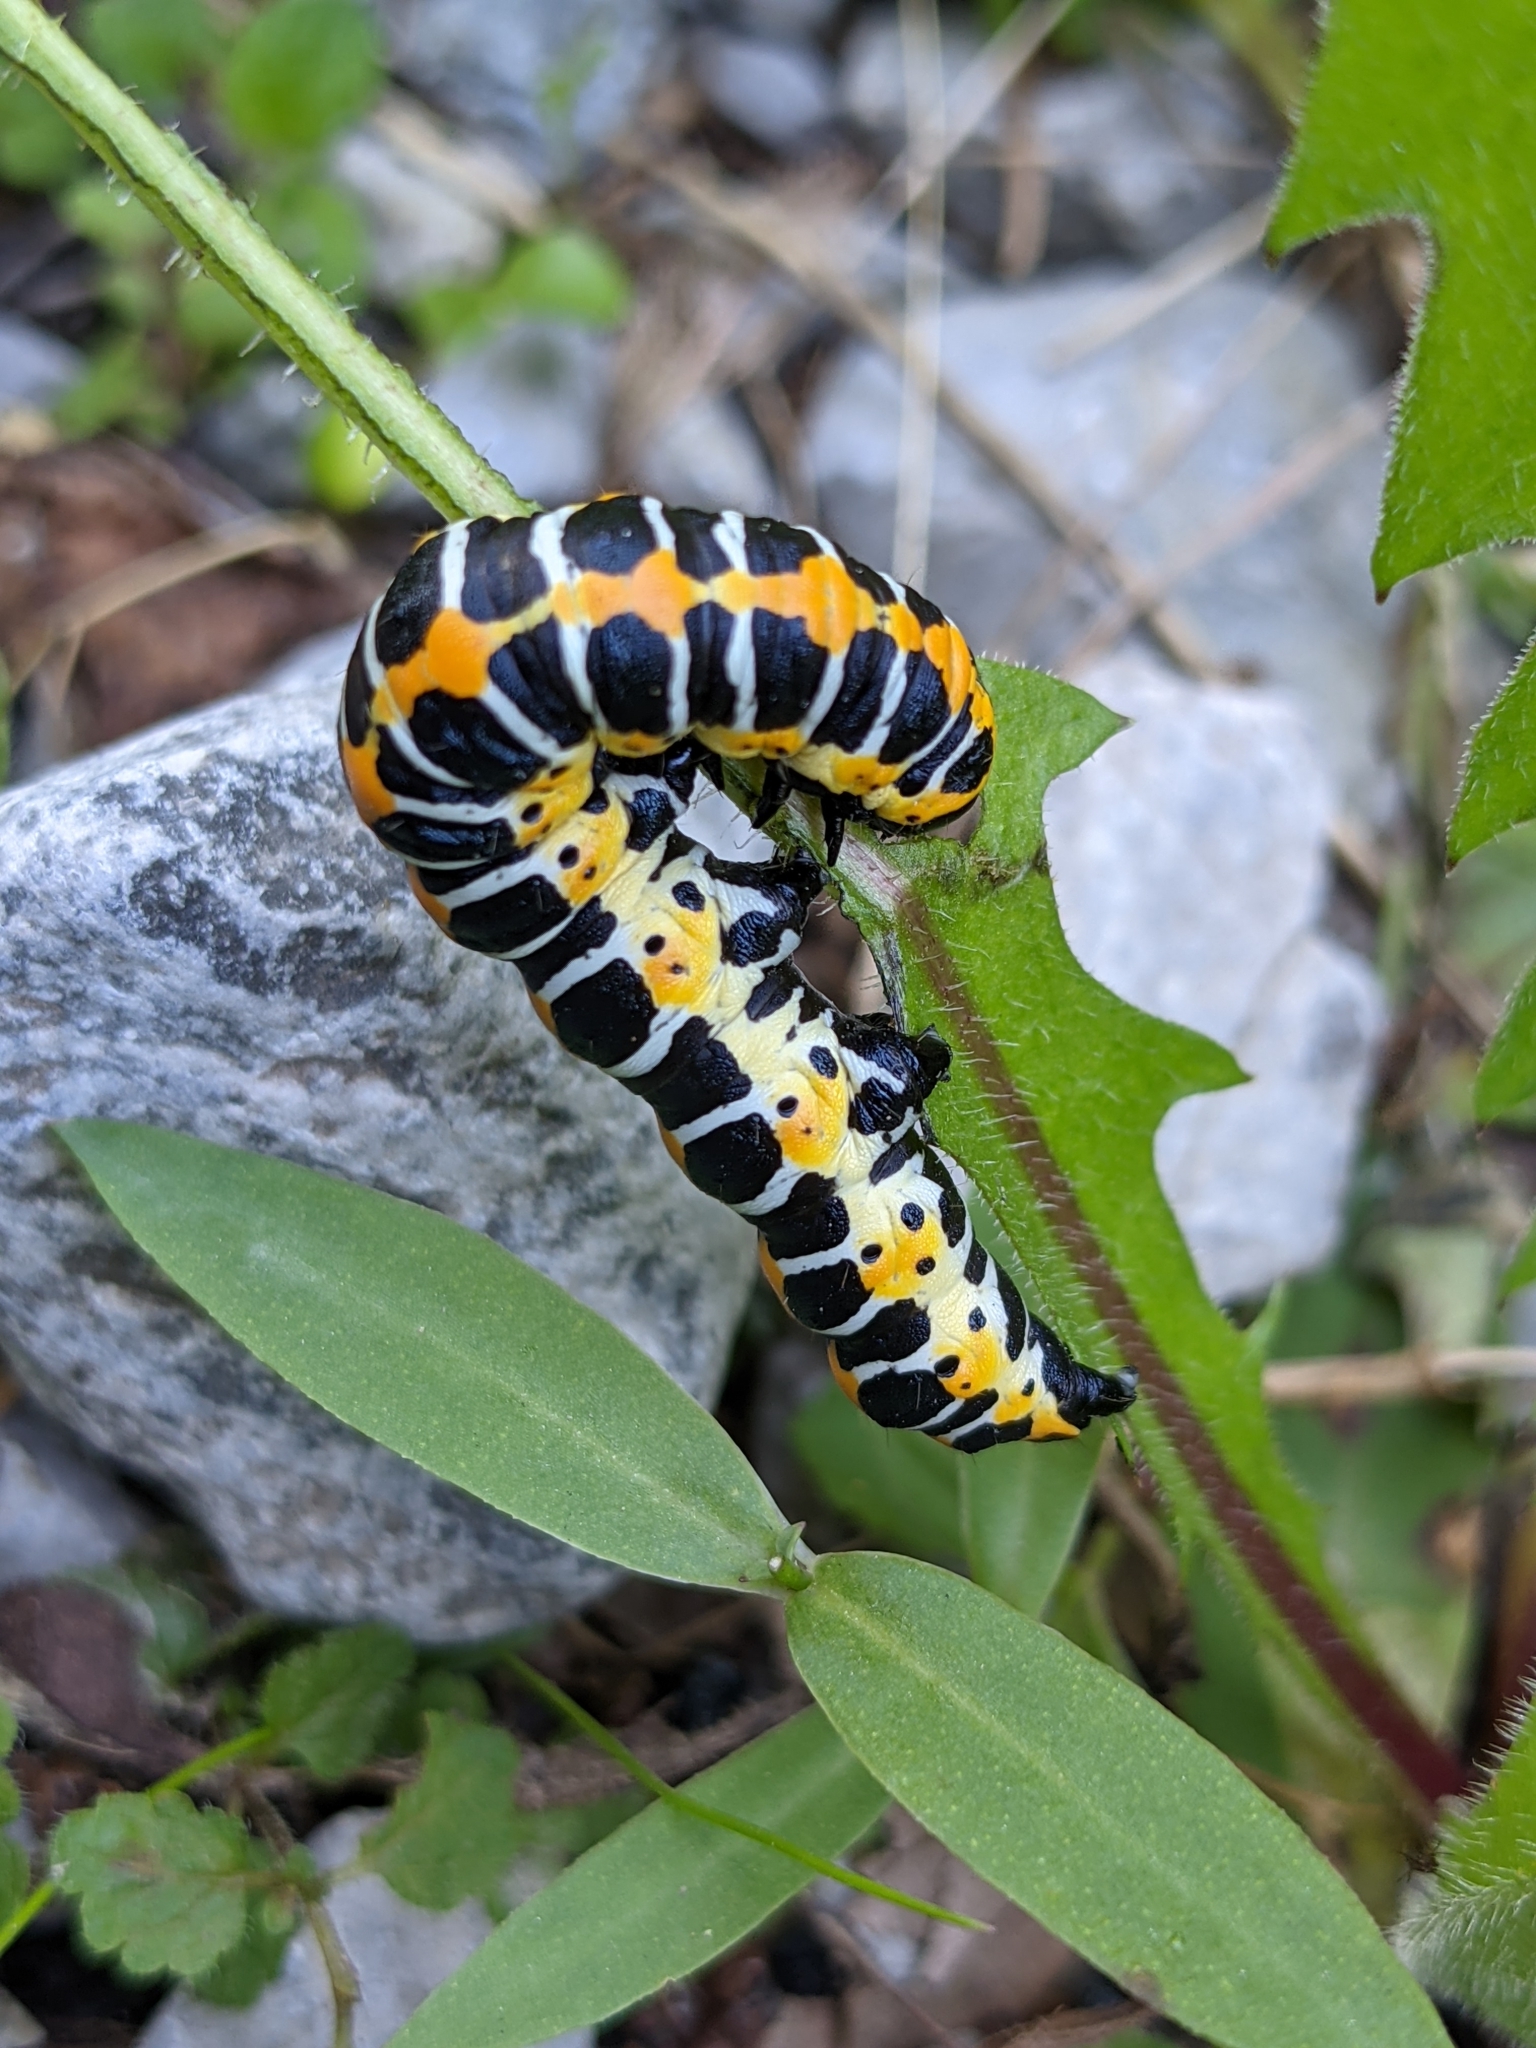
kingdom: Animalia
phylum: Arthropoda
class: Insecta
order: Lepidoptera
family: Noctuidae
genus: Cucullia
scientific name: Cucullia lactucae
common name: Lettuce shark
